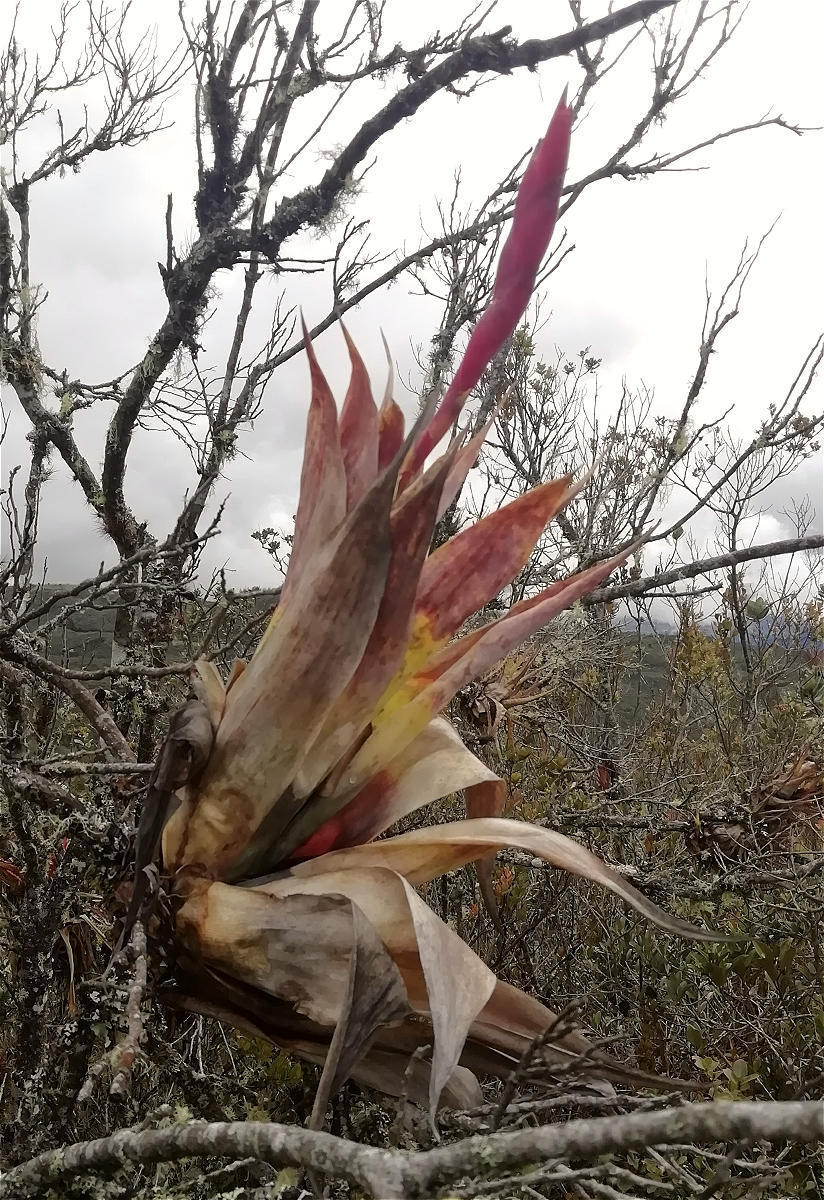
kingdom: Plantae
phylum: Tracheophyta
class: Liliopsida
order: Poales
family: Bromeliaceae
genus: Tillandsia
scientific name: Tillandsia walteri
